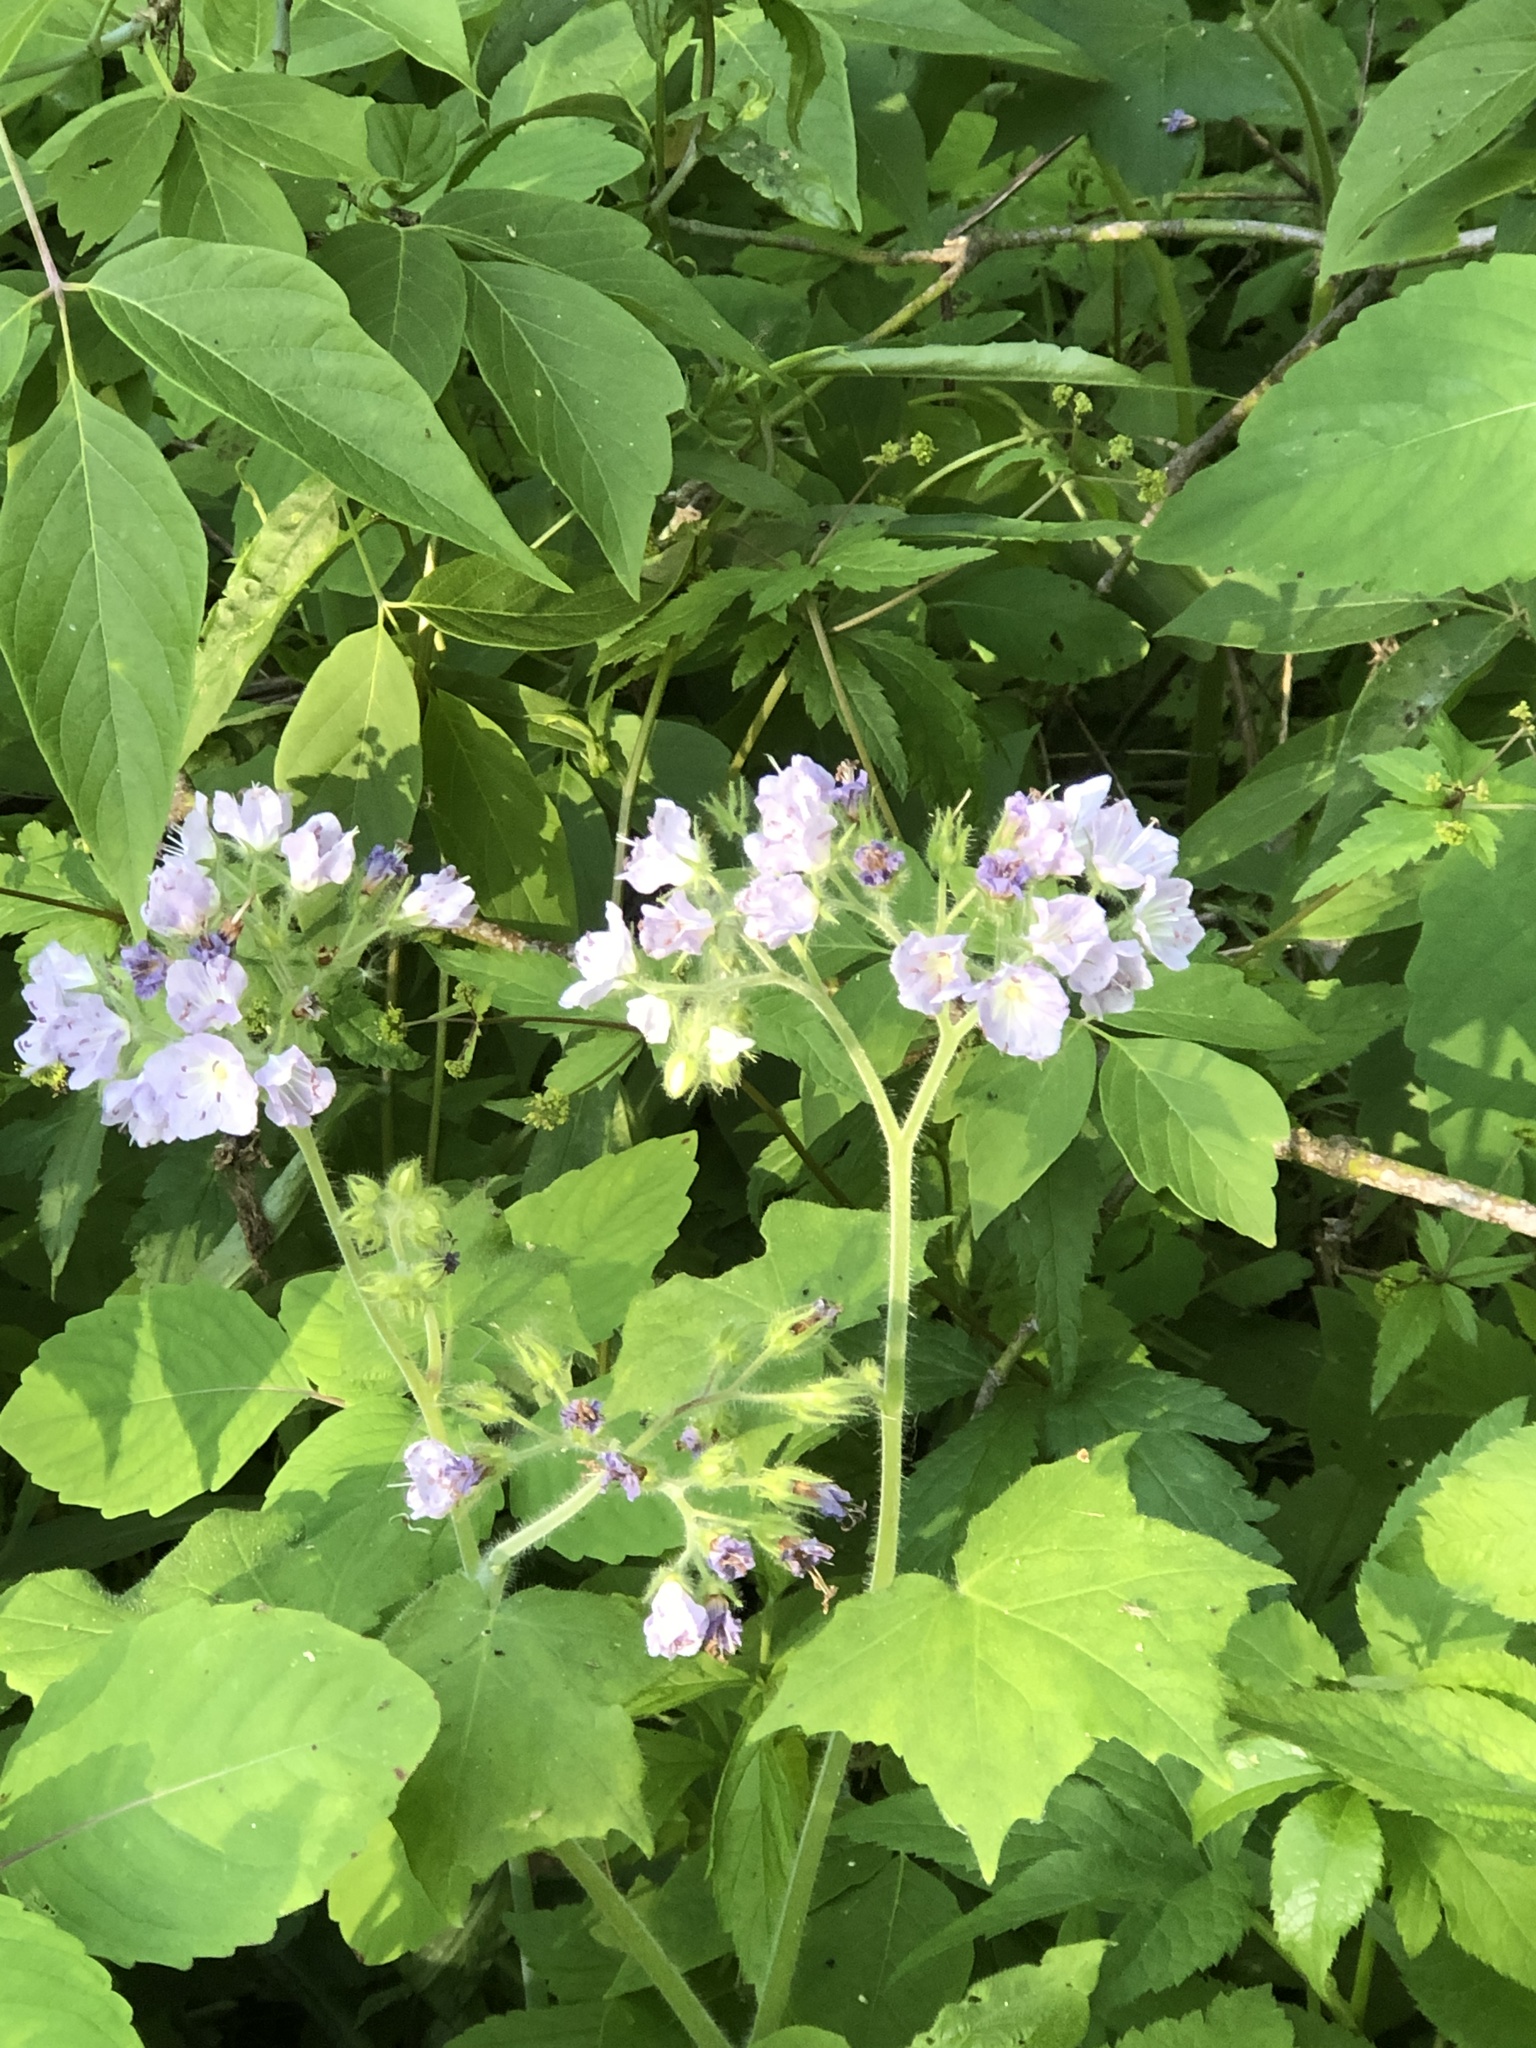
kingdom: Plantae
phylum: Tracheophyta
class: Magnoliopsida
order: Boraginales
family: Hydrophyllaceae
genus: Hydrophyllum
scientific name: Hydrophyllum appendiculatum
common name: Appendaged waterleaf
